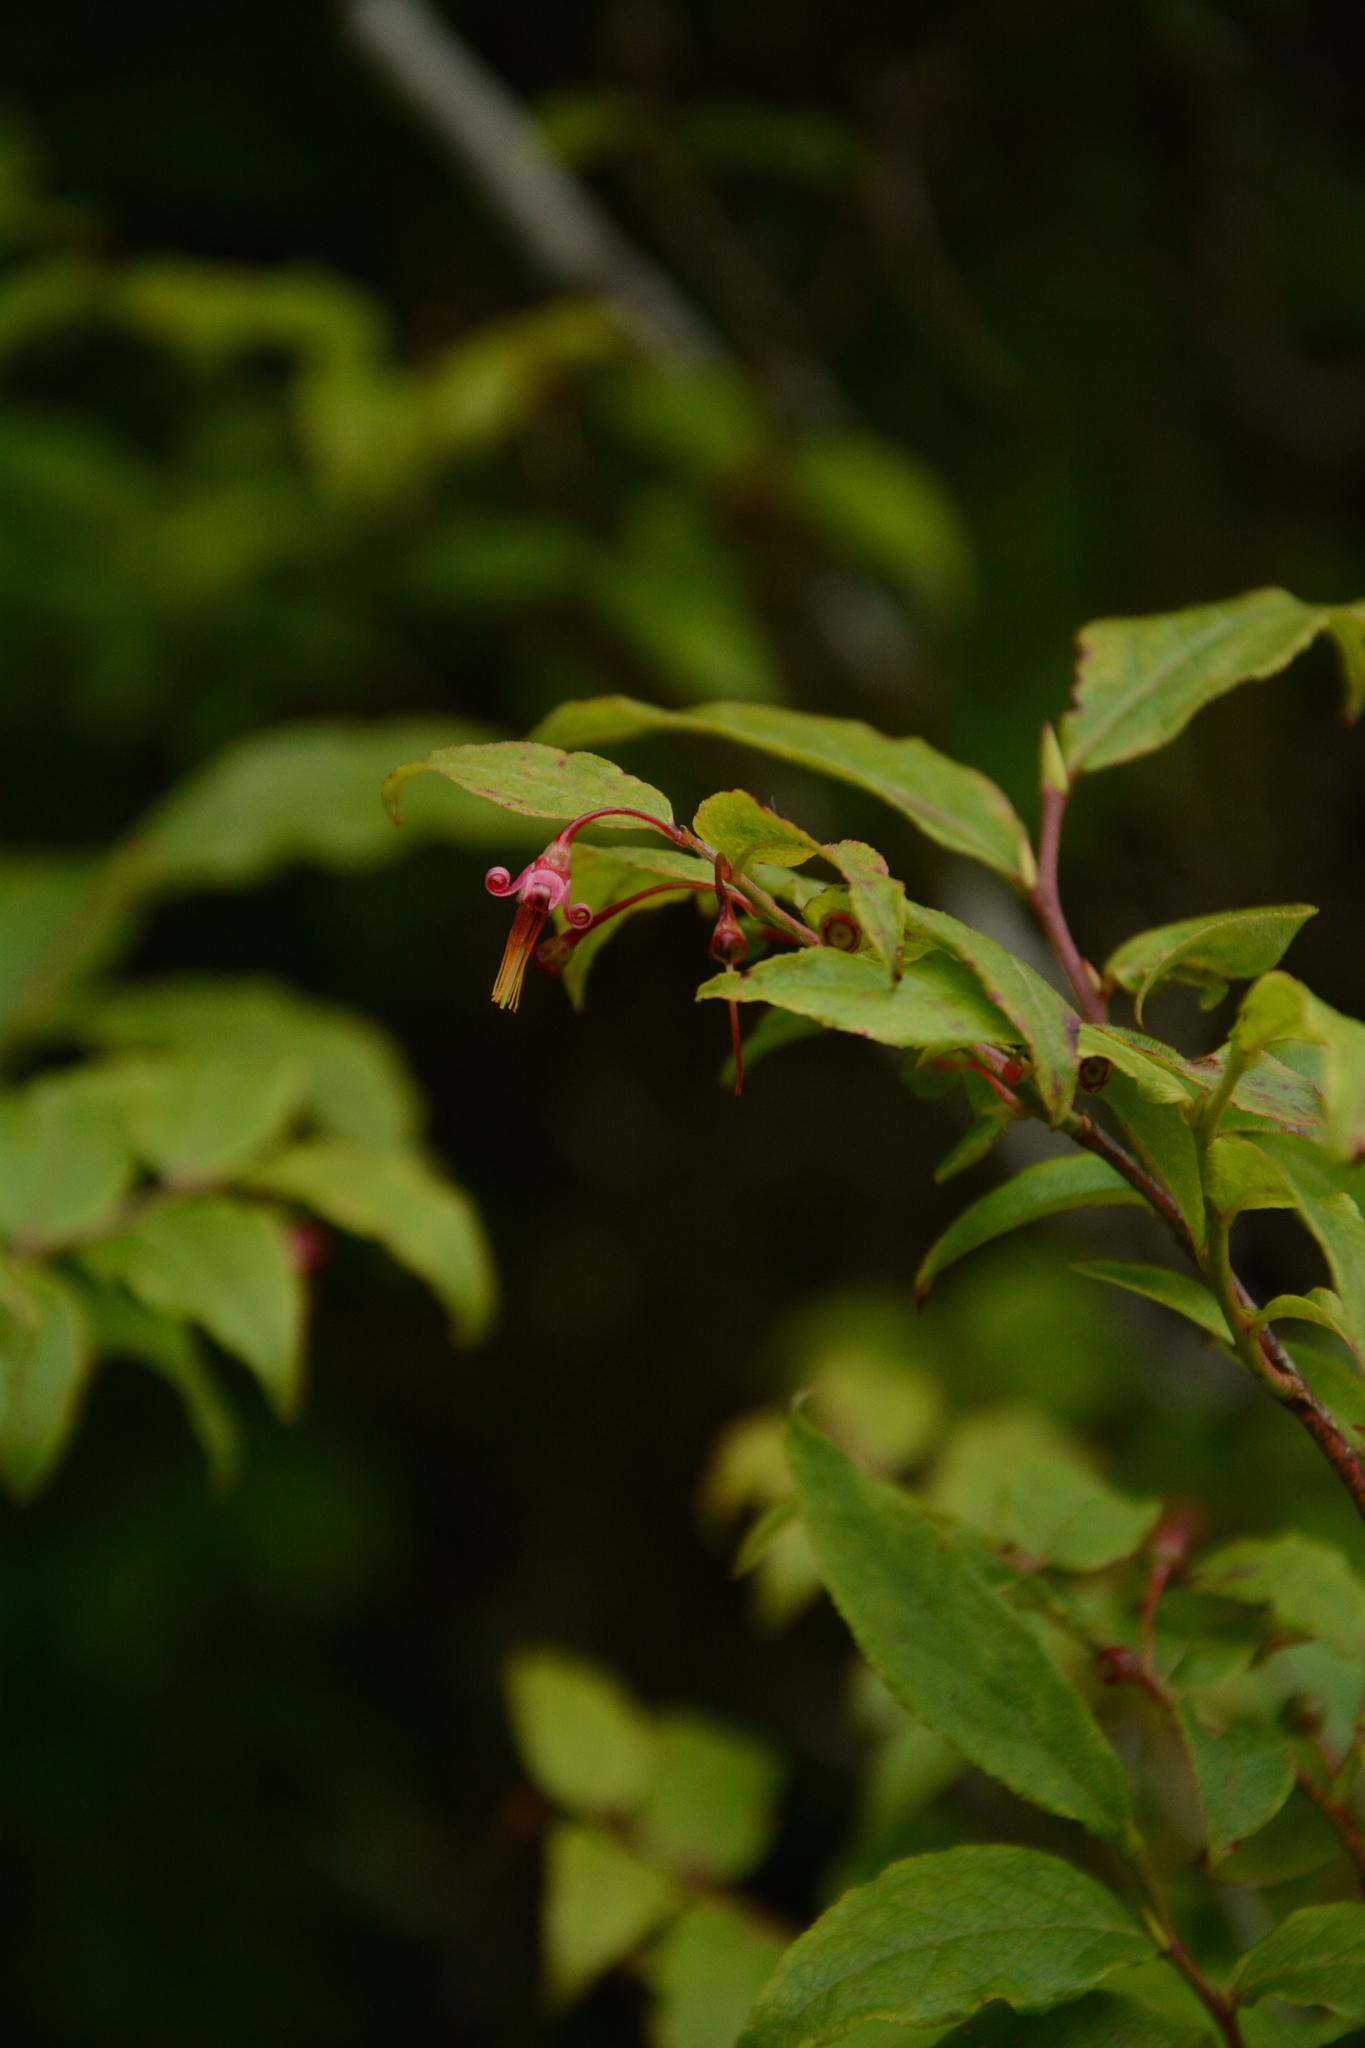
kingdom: Plantae
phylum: Tracheophyta
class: Magnoliopsida
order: Ericales
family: Ericaceae
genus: Vaccinium
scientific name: Vaccinium erythrocarpum
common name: Bearberry
